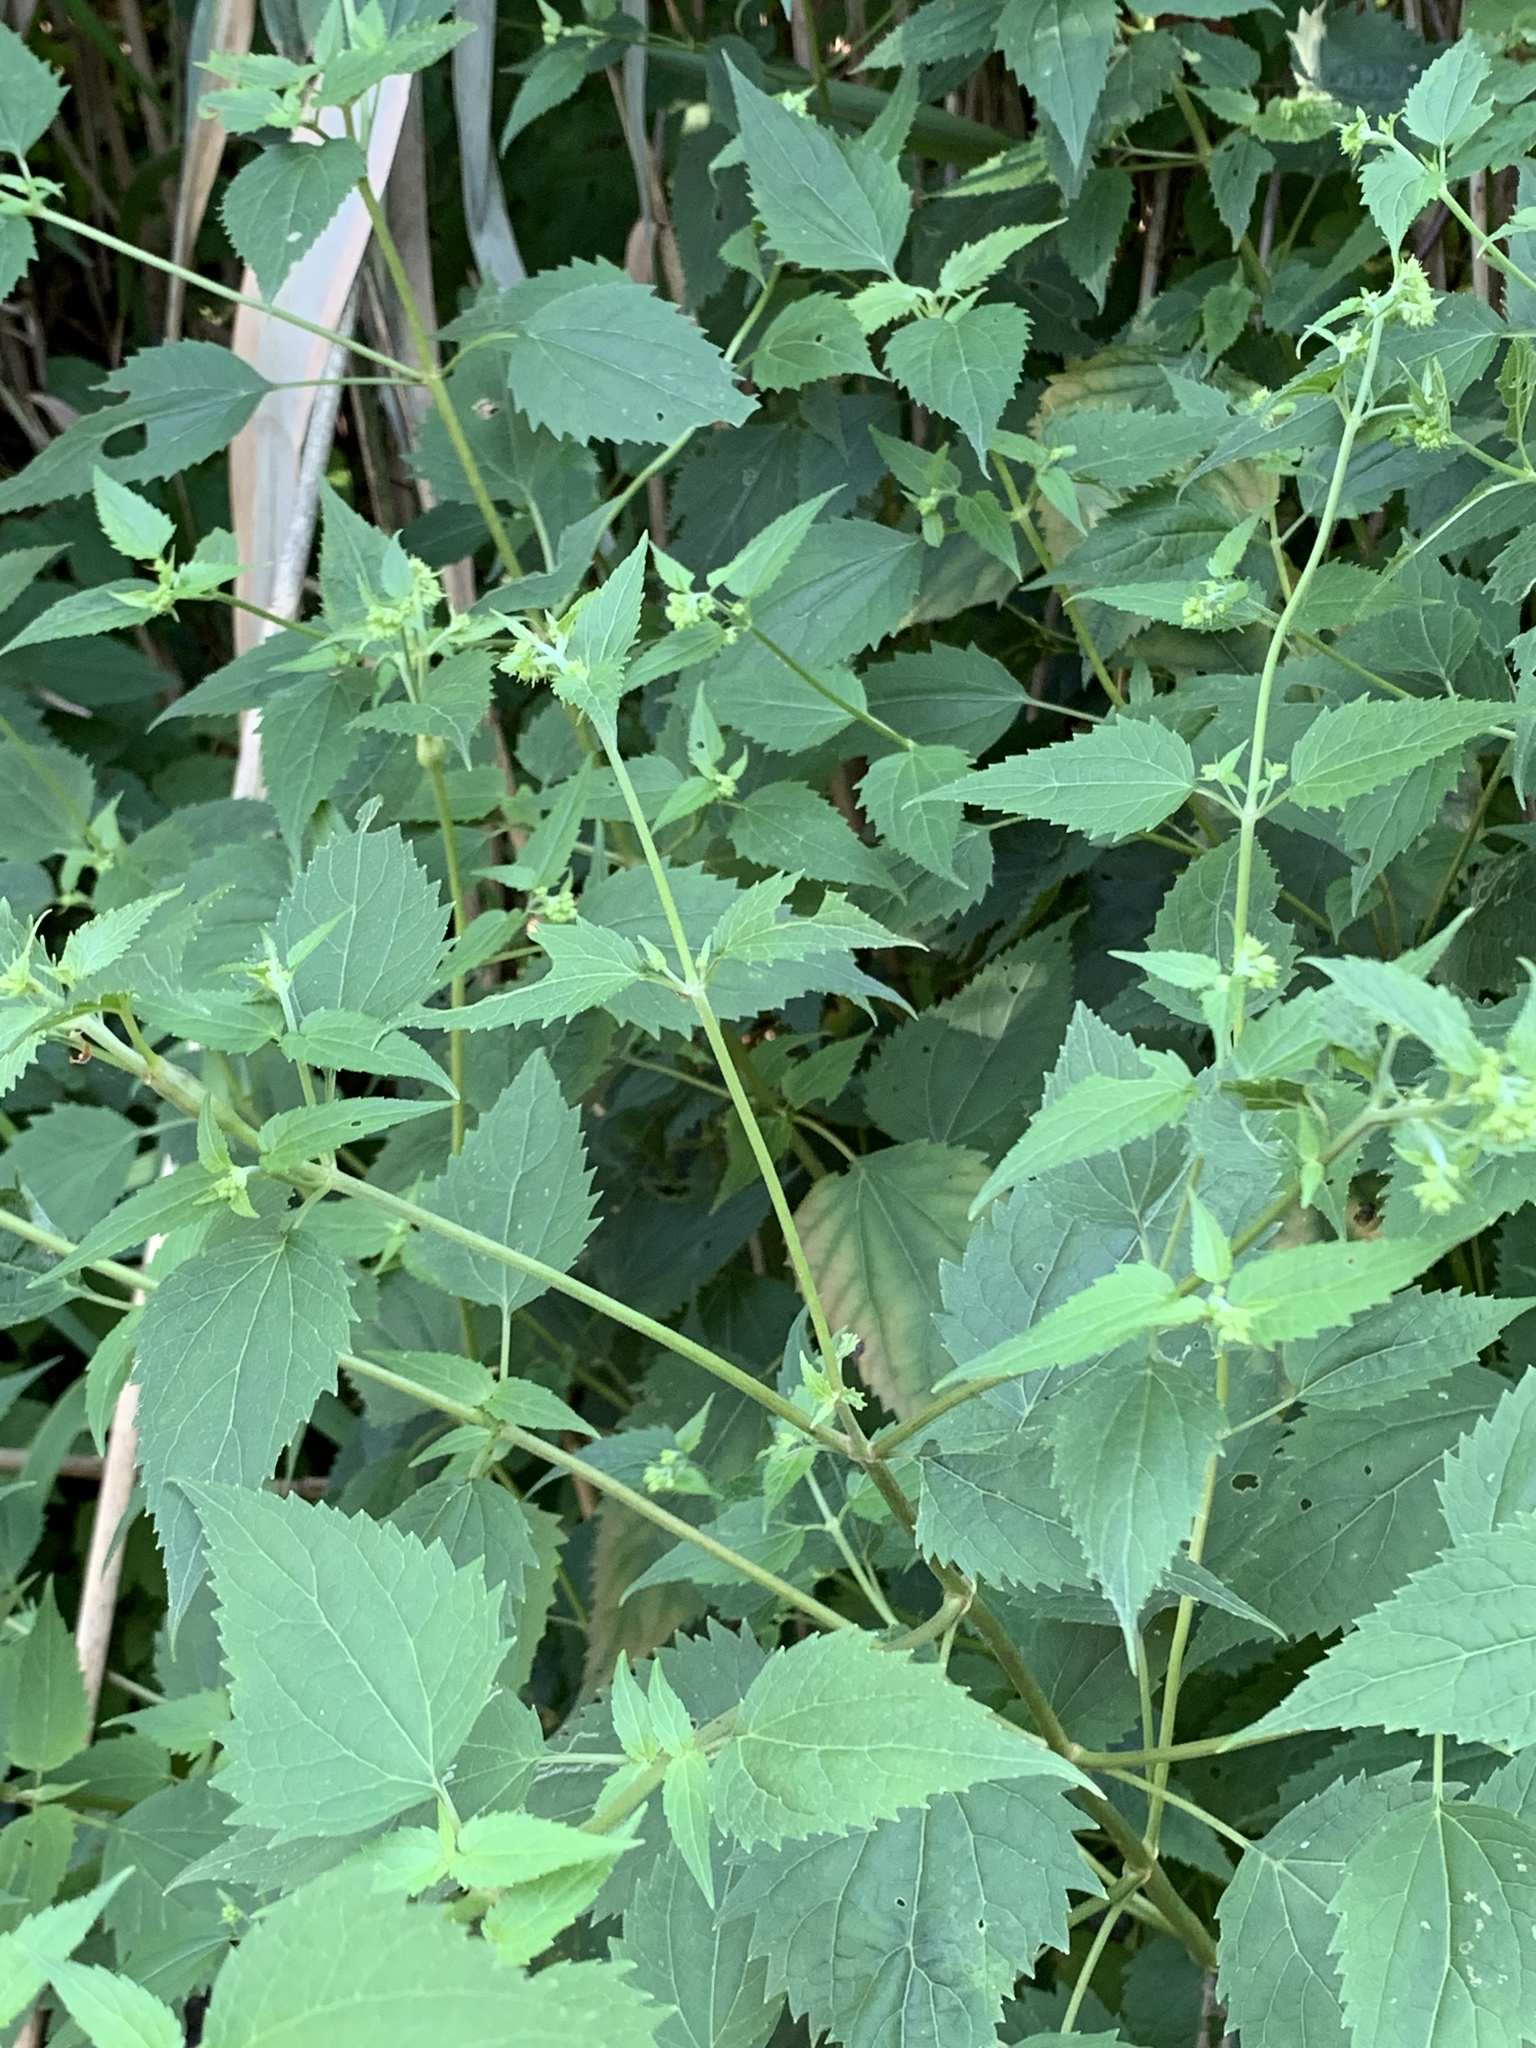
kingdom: Plantae
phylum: Tracheophyta
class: Magnoliopsida
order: Asterales
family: Asteraceae
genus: Ageratina
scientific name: Ageratina altissima
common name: White snakeroot
